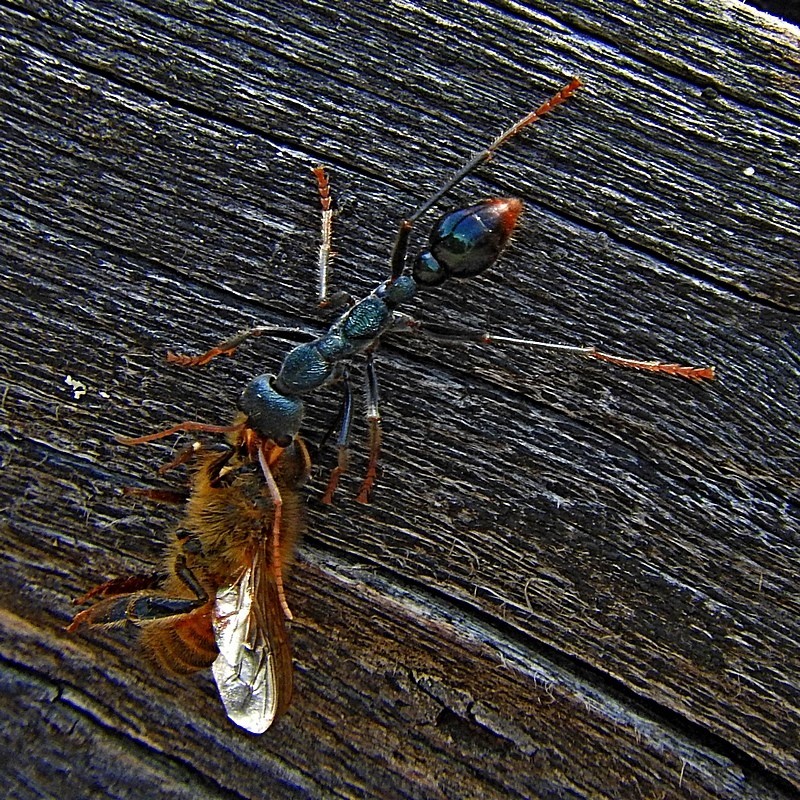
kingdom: Animalia
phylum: Arthropoda
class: Insecta
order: Hymenoptera
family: Formicidae
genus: Myrmecia
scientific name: Myrmecia tarsata
